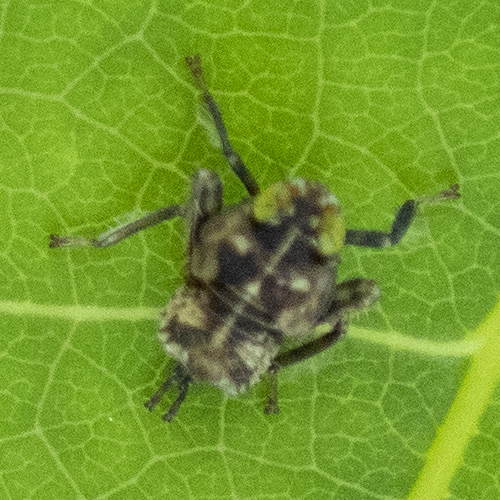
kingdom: Animalia
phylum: Arthropoda
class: Insecta
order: Hemiptera
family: Cicadellidae
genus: Jikradia
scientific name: Jikradia olitoria
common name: Coppery leafhopper
